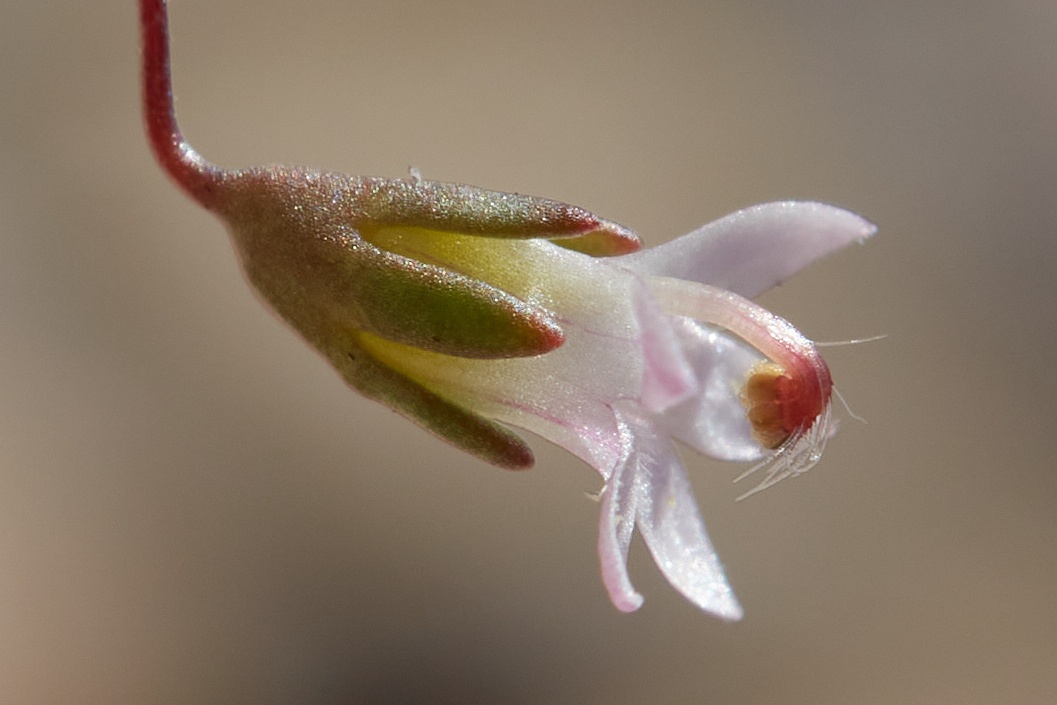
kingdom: Plantae
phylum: Tracheophyta
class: Magnoliopsida
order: Asterales
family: Campanulaceae
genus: Nemacladus
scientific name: Nemacladus secundiflorus
